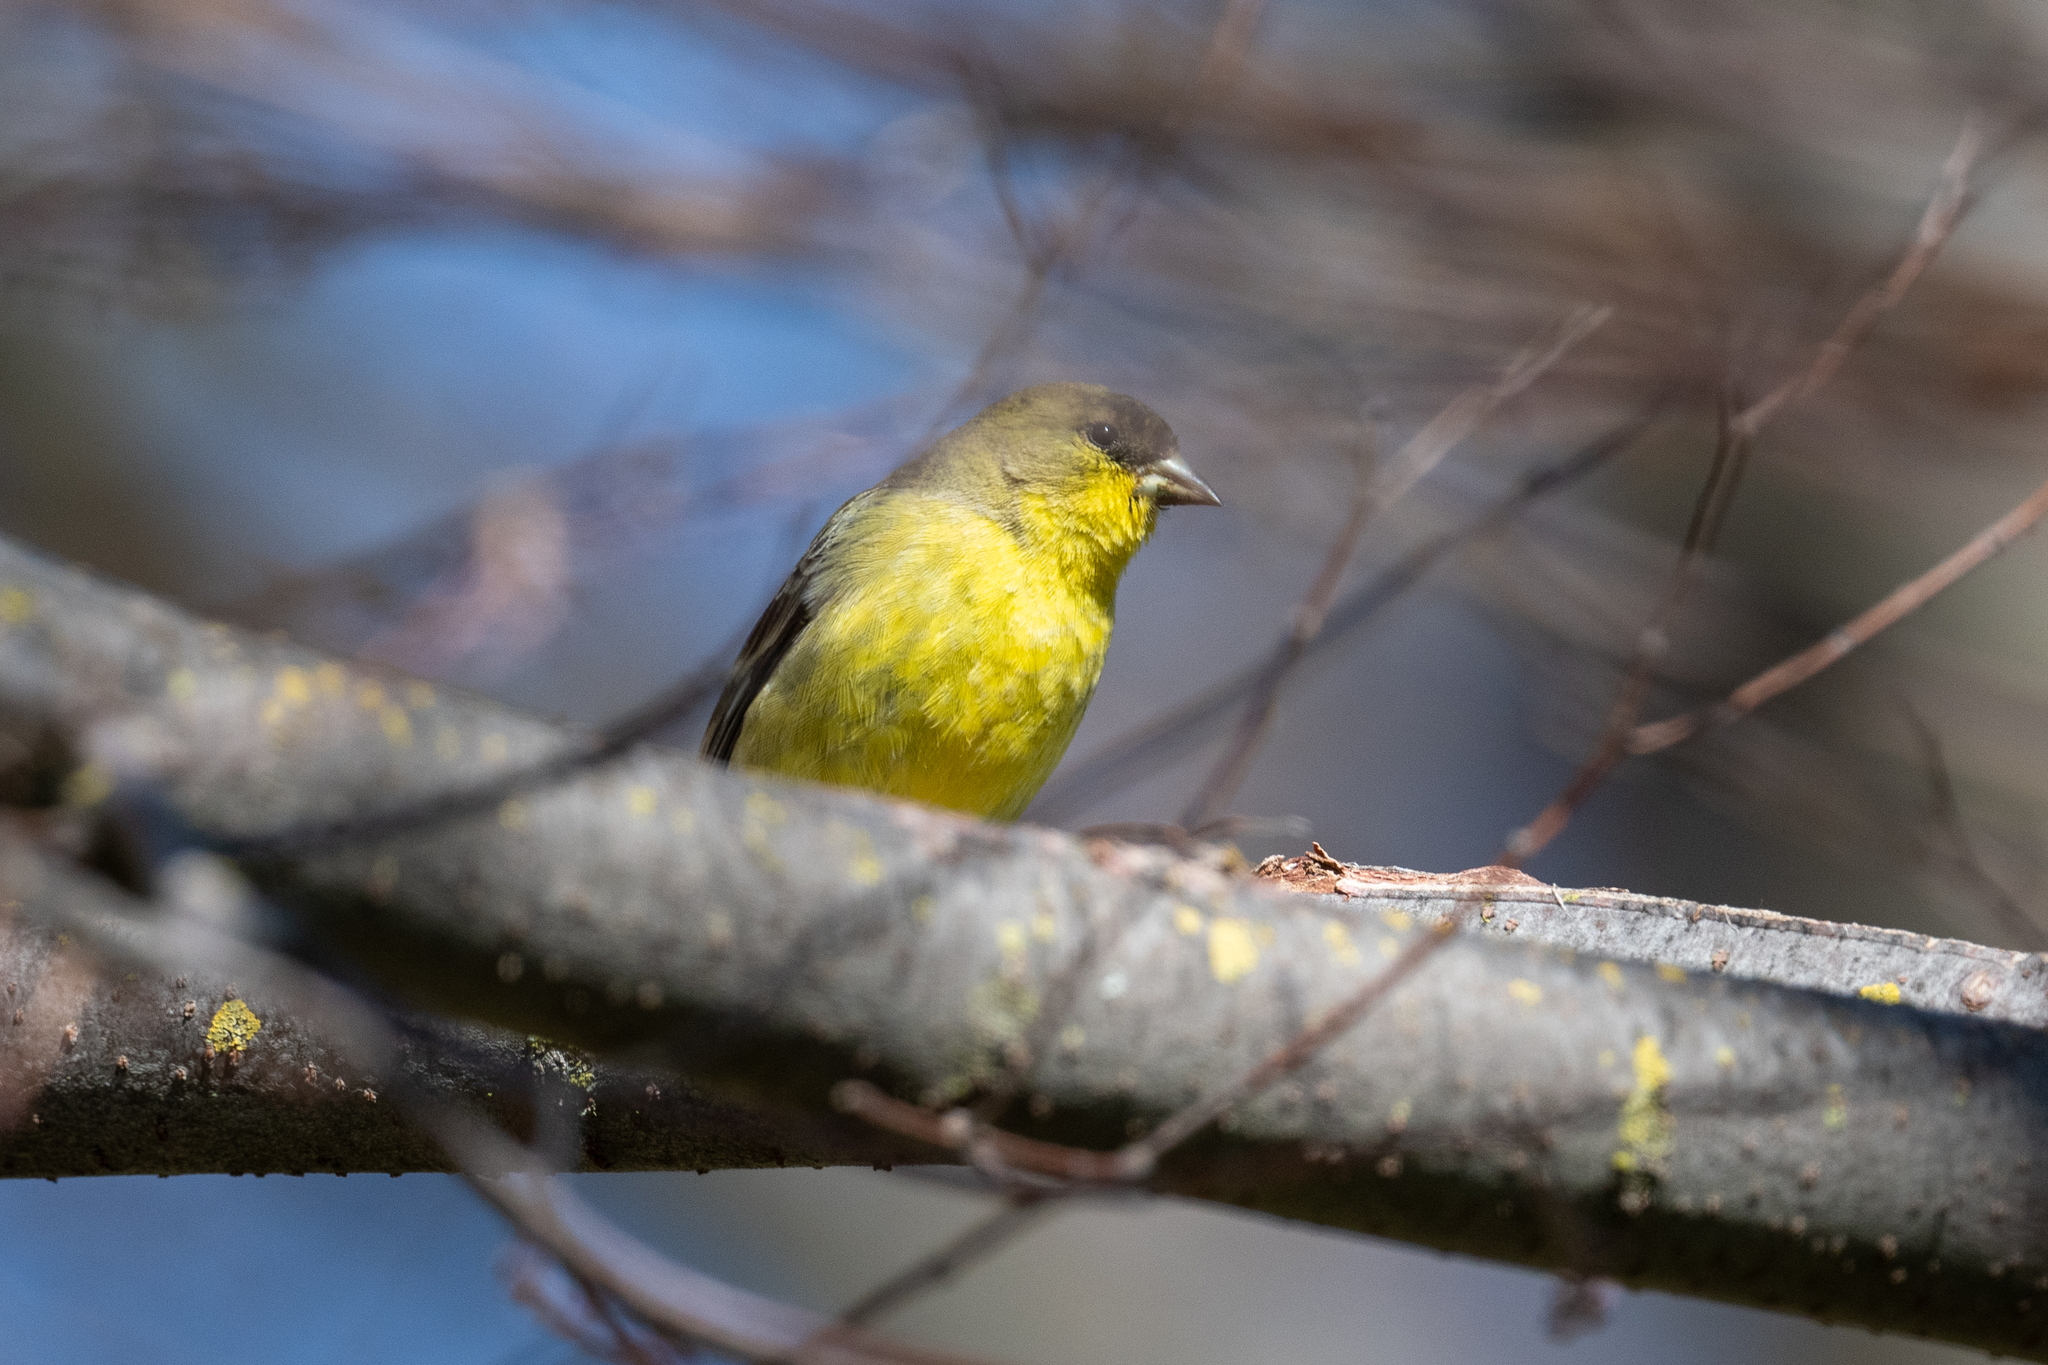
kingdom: Animalia
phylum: Chordata
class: Aves
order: Passeriformes
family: Fringillidae
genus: Spinus
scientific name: Spinus psaltria
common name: Lesser goldfinch
